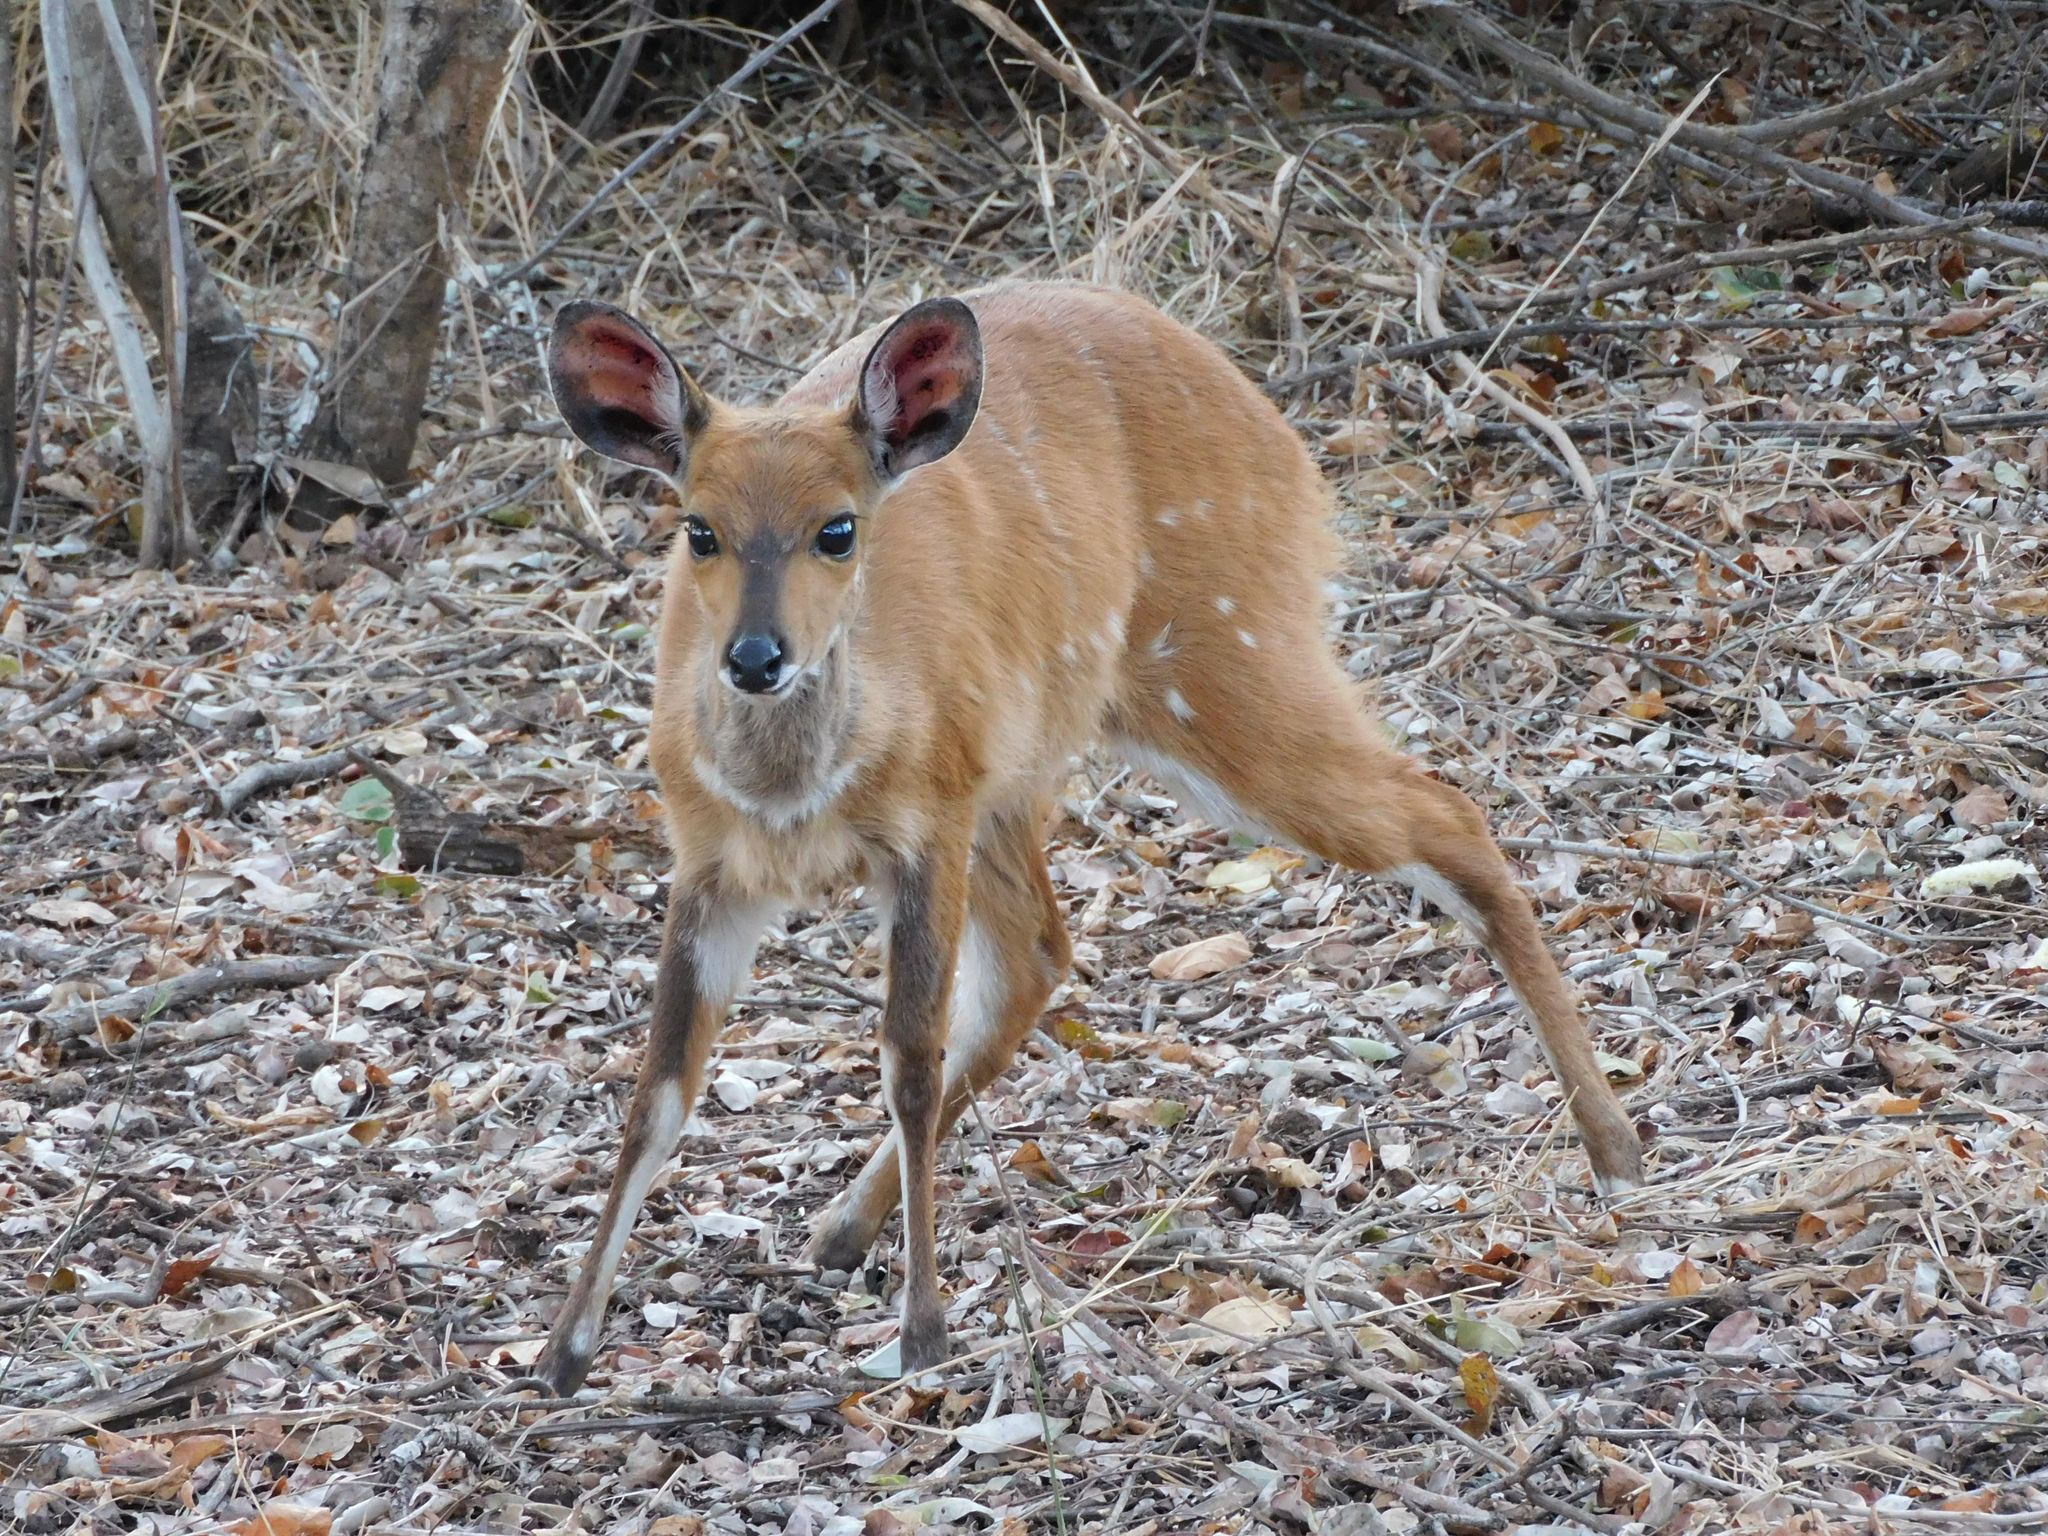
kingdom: Animalia
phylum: Chordata
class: Mammalia
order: Artiodactyla
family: Bovidae
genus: Tragelaphus
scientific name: Tragelaphus scriptus
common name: Bushbuck
